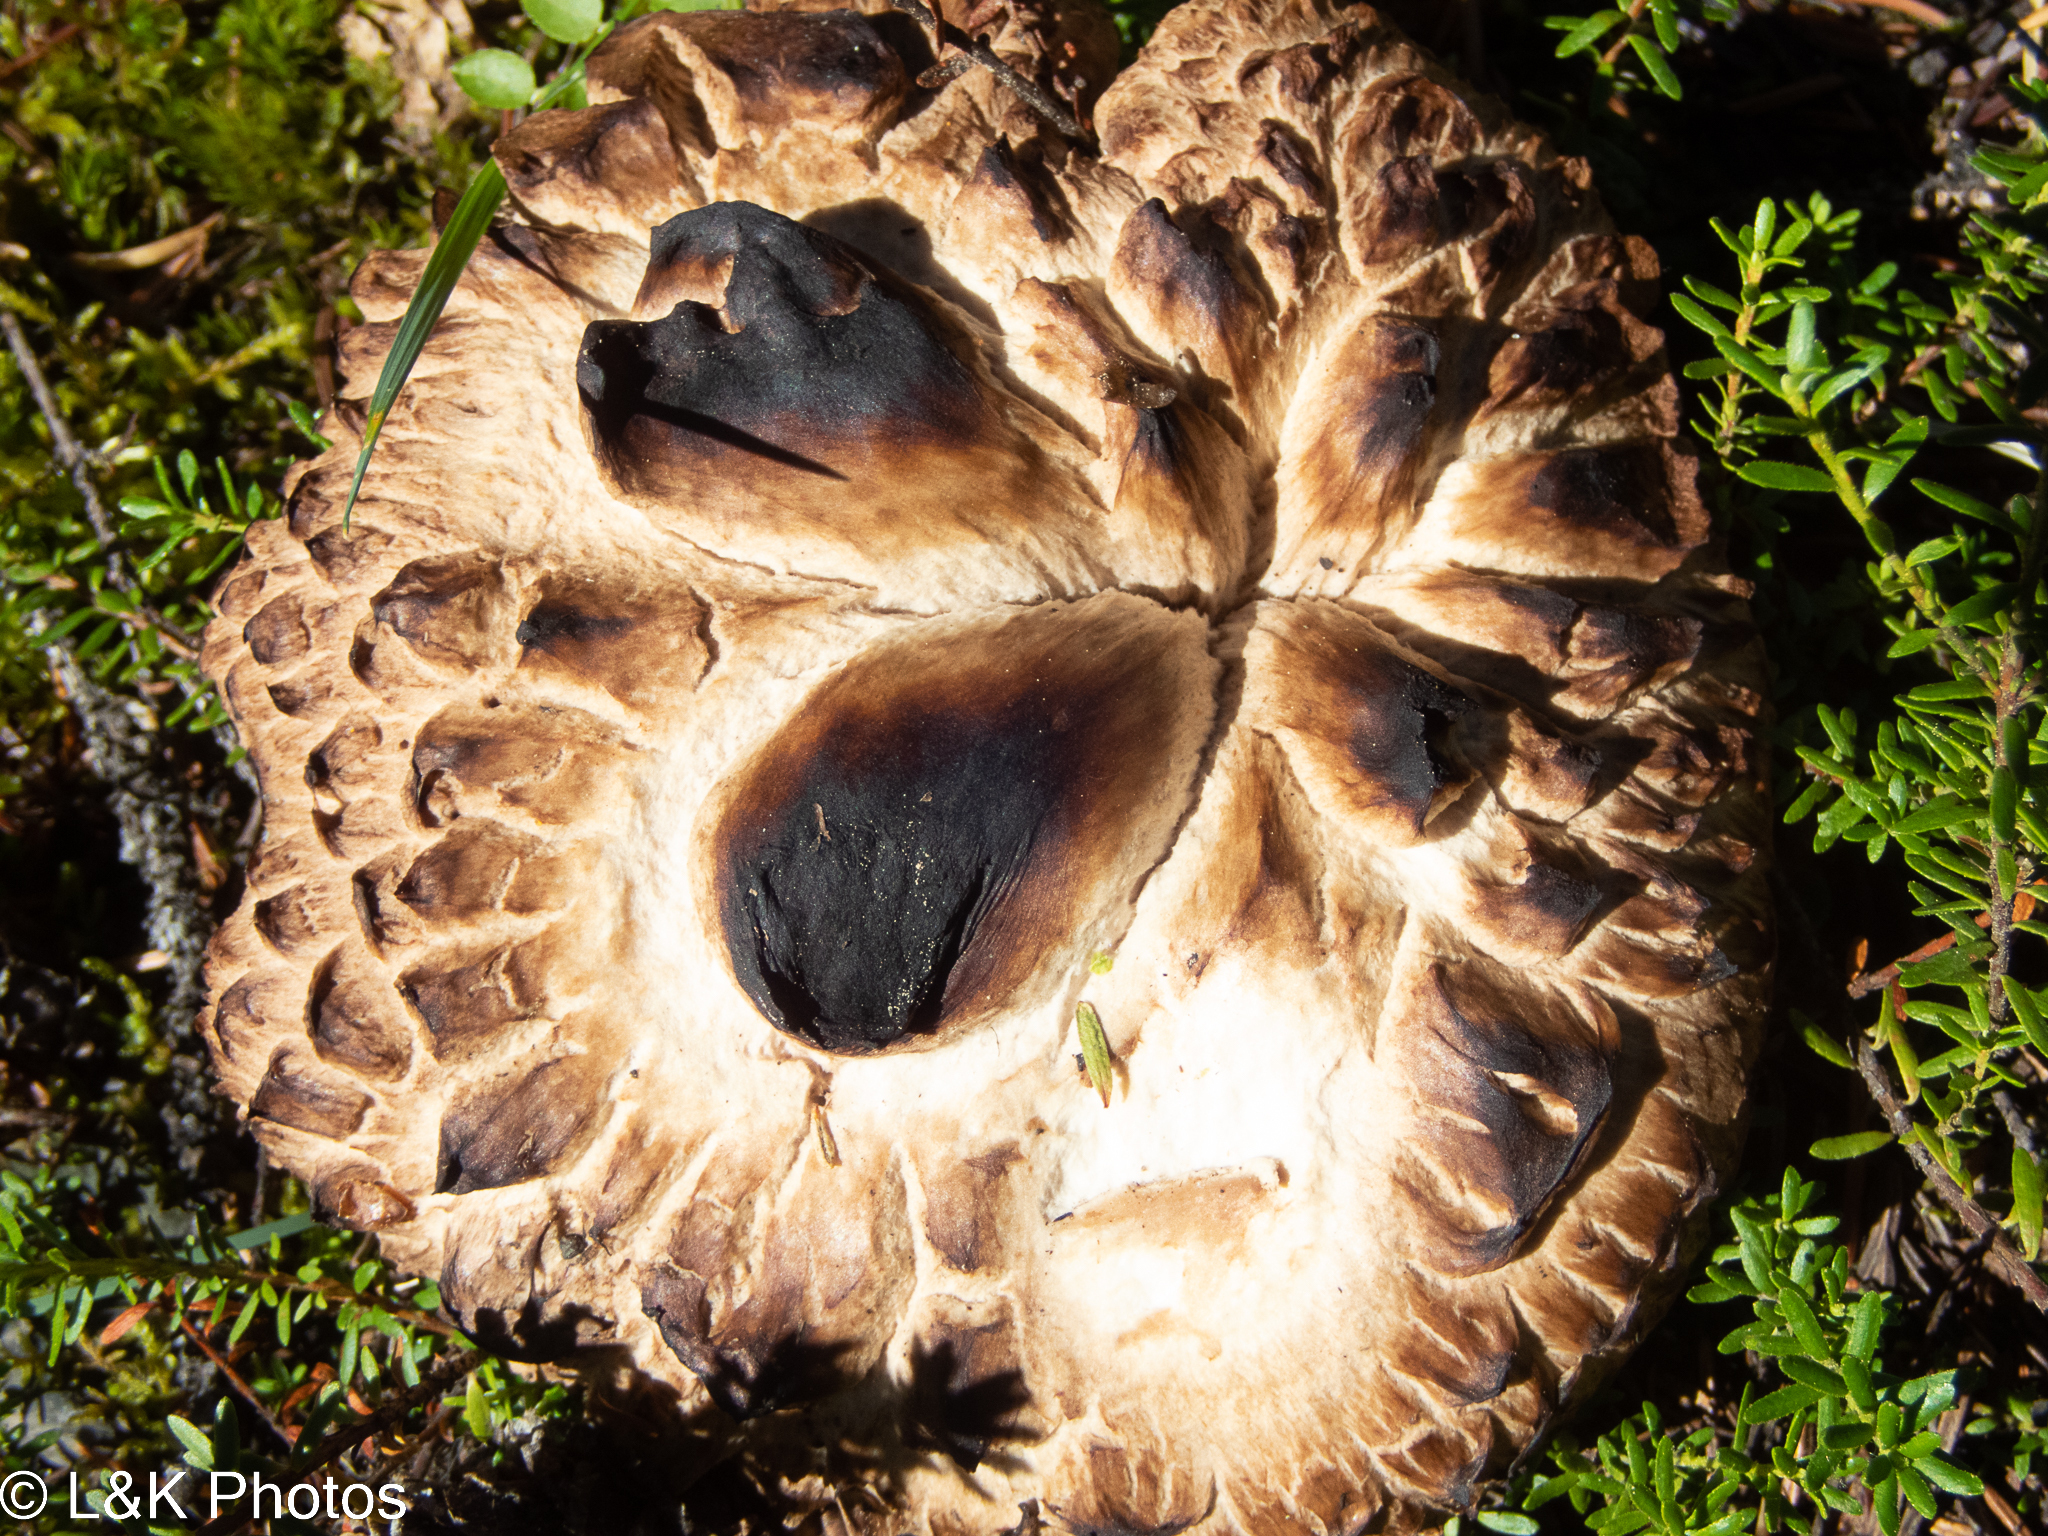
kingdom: Fungi
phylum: Basidiomycota
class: Agaricomycetes
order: Thelephorales
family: Bankeraceae
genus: Sarcodon
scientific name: Sarcodon imbricatus
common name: Shingled hedgehog
